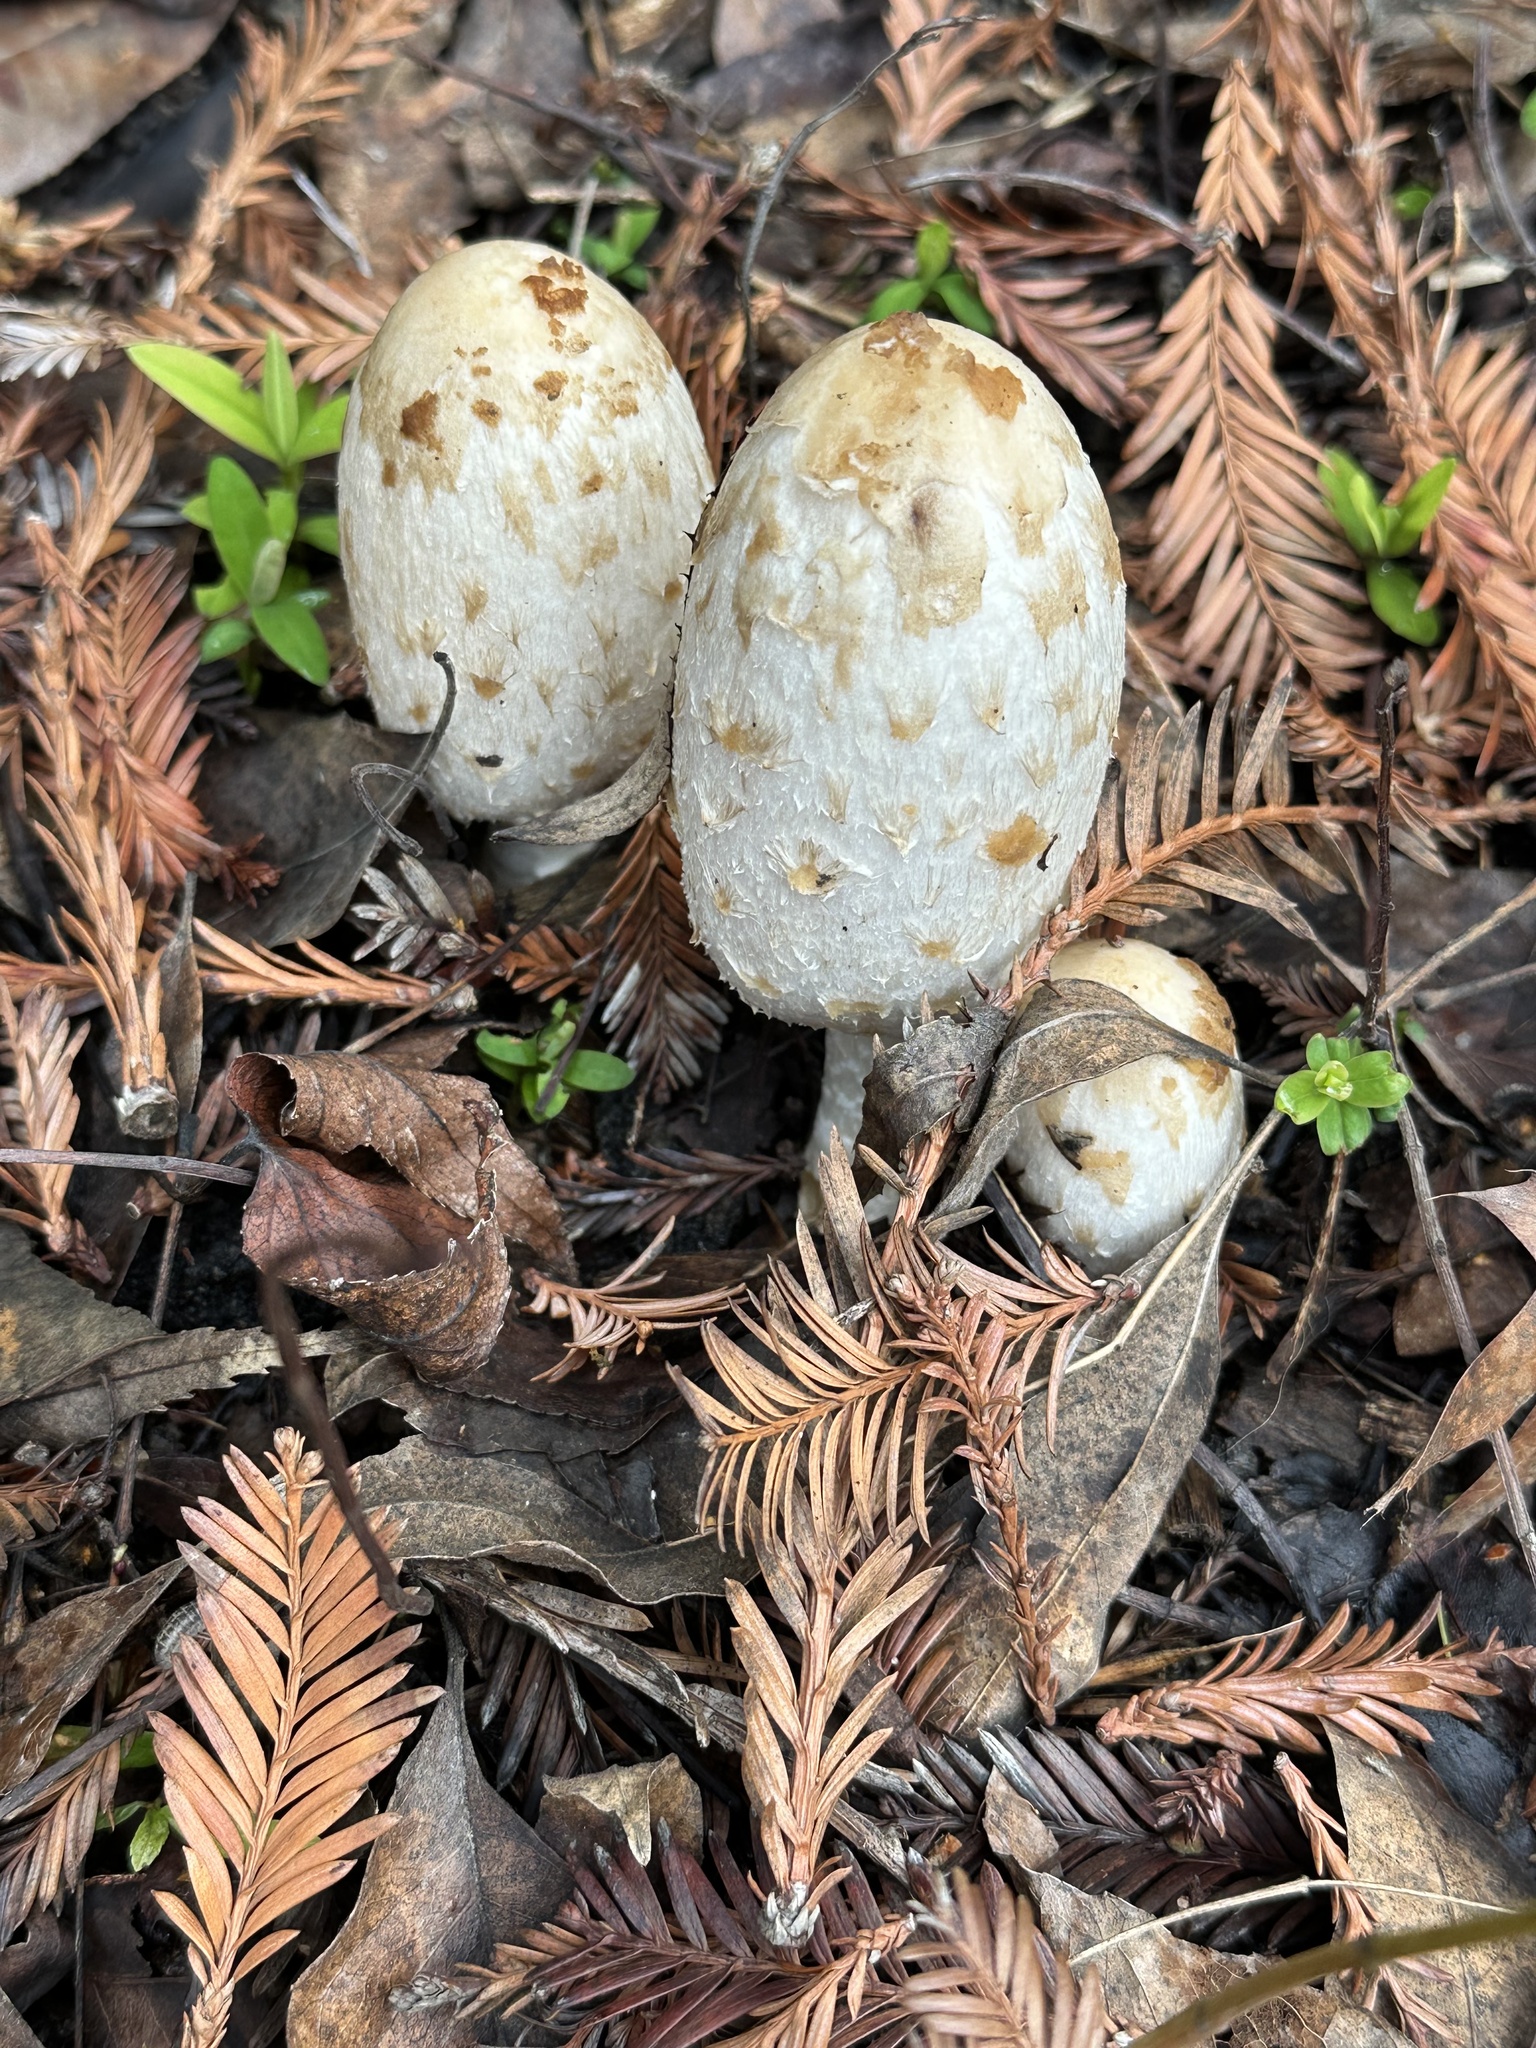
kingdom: Fungi
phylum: Basidiomycota
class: Agaricomycetes
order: Agaricales
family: Agaricaceae
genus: Coprinus
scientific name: Coprinus comatus
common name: Lawyer's wig
